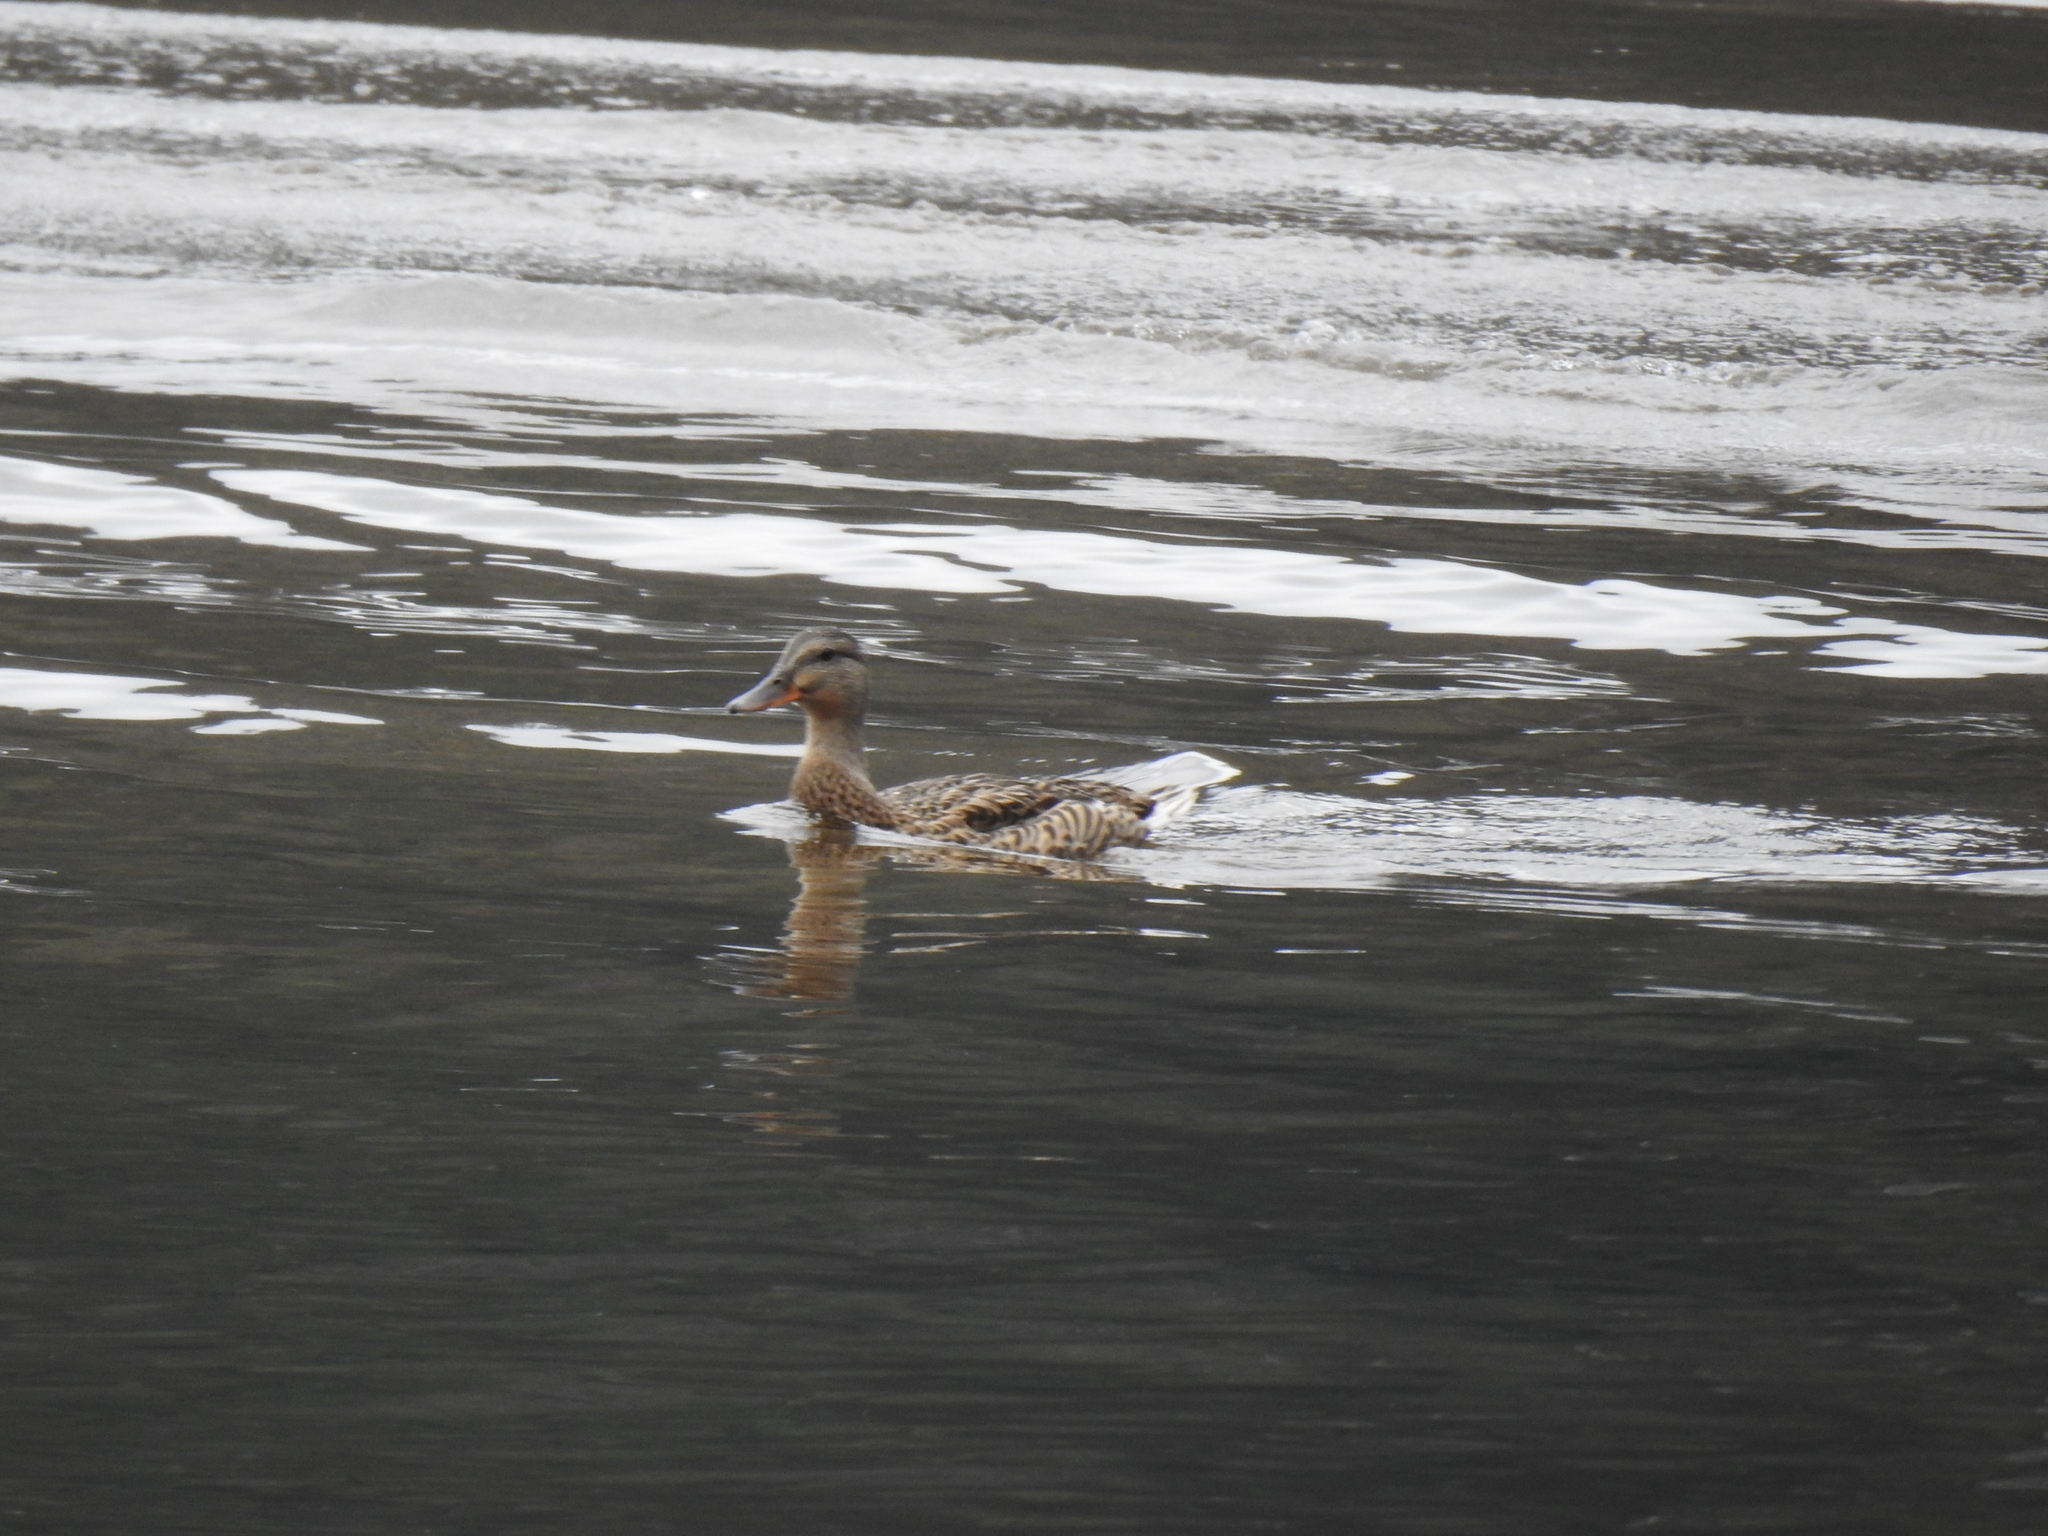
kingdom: Animalia
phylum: Chordata
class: Aves
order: Anseriformes
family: Anatidae
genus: Anas
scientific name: Anas platyrhynchos
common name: Mallard
